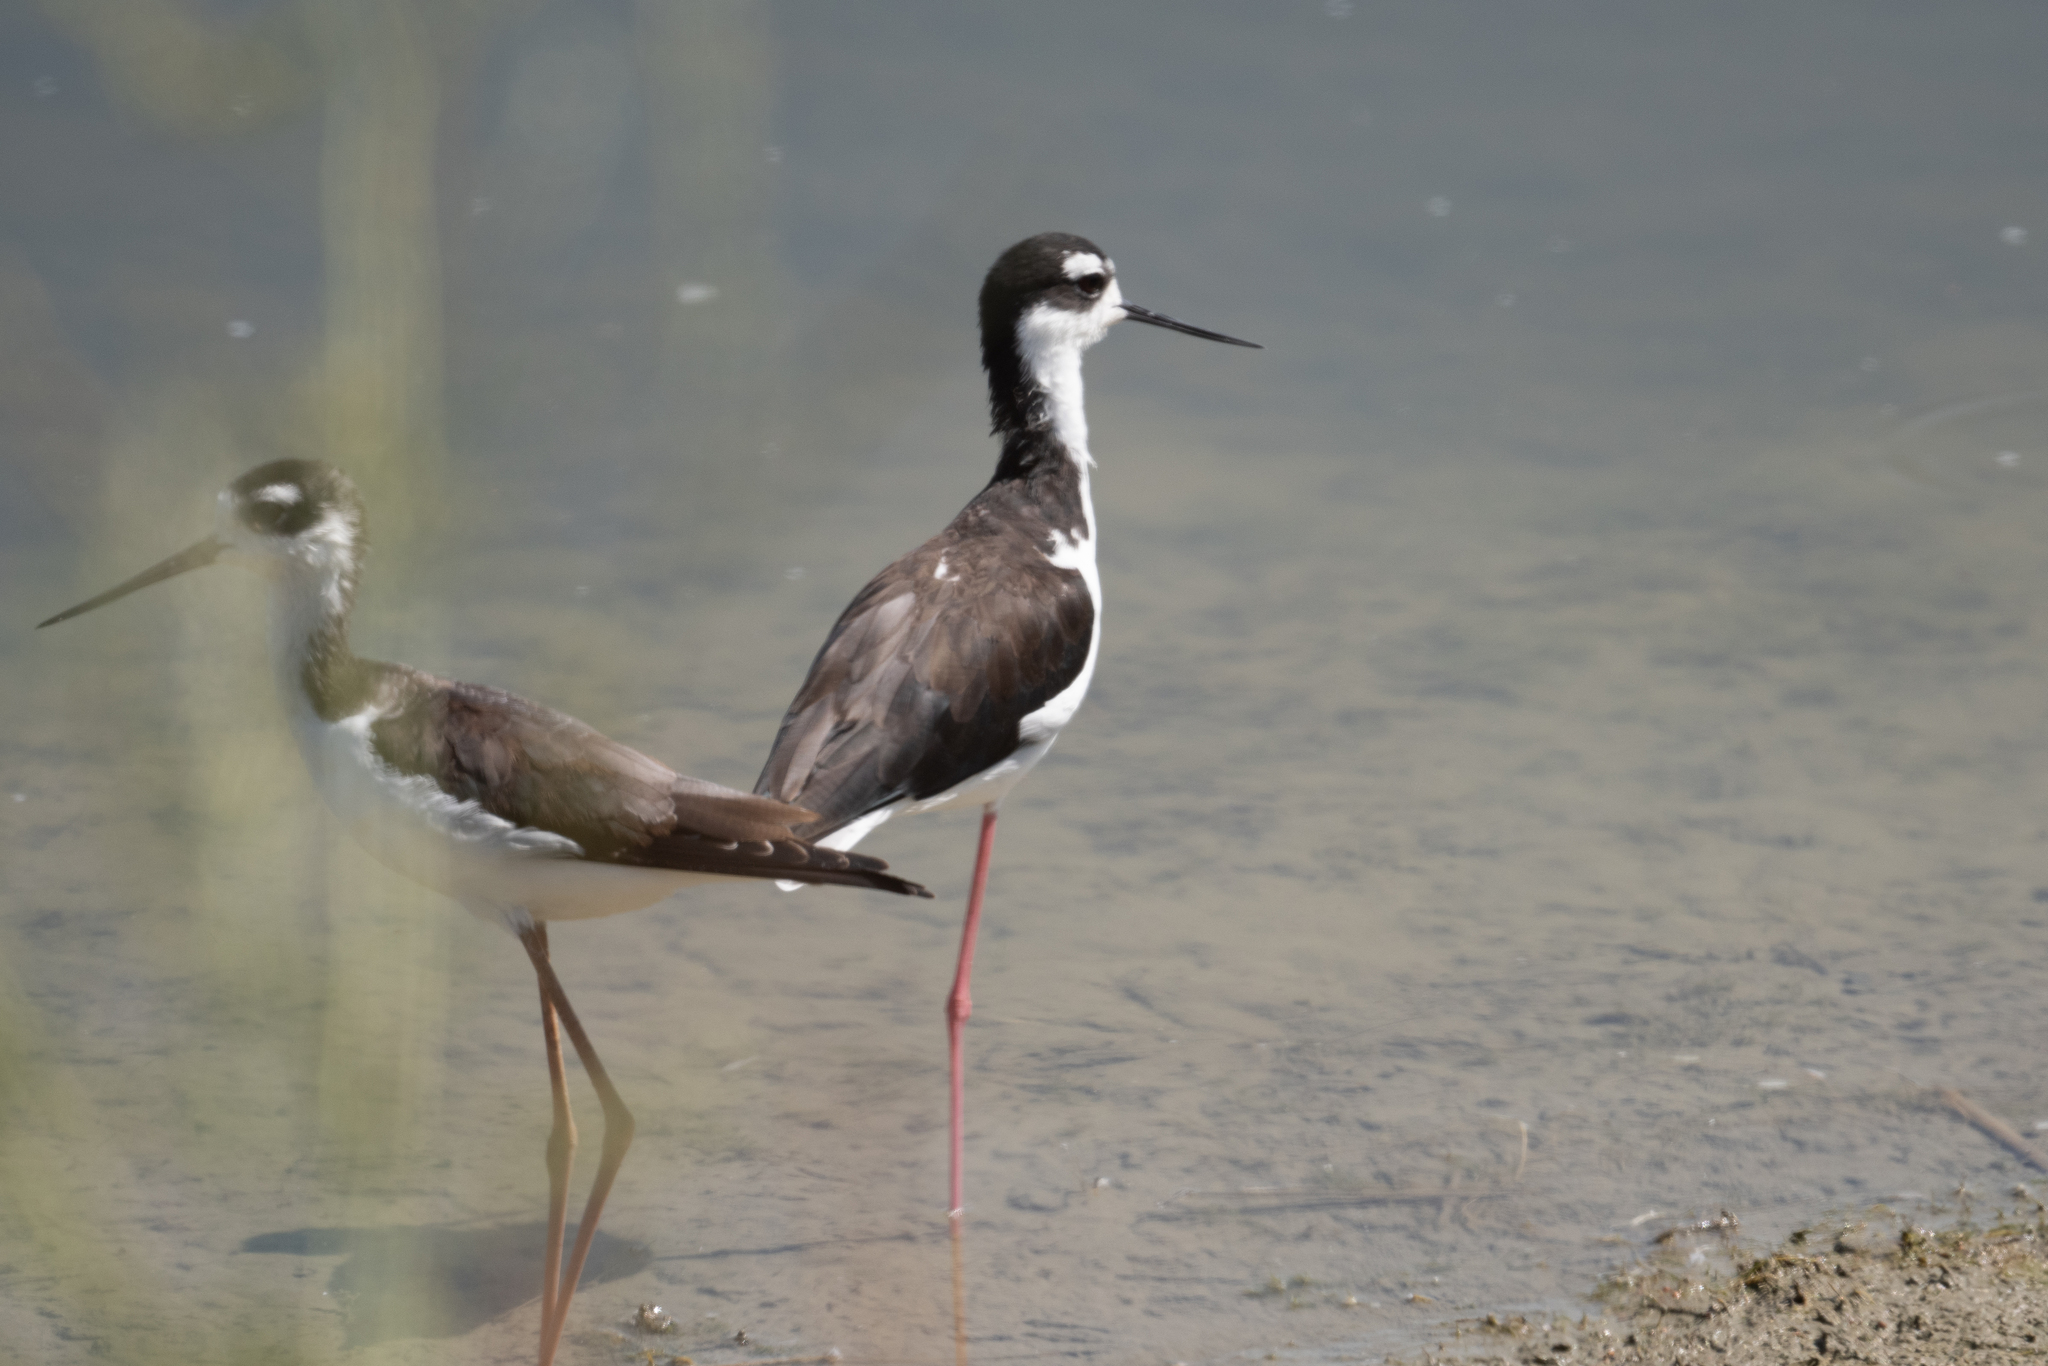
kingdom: Animalia
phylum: Chordata
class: Aves
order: Charadriiformes
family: Recurvirostridae
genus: Himantopus
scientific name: Himantopus mexicanus
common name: Black-necked stilt
